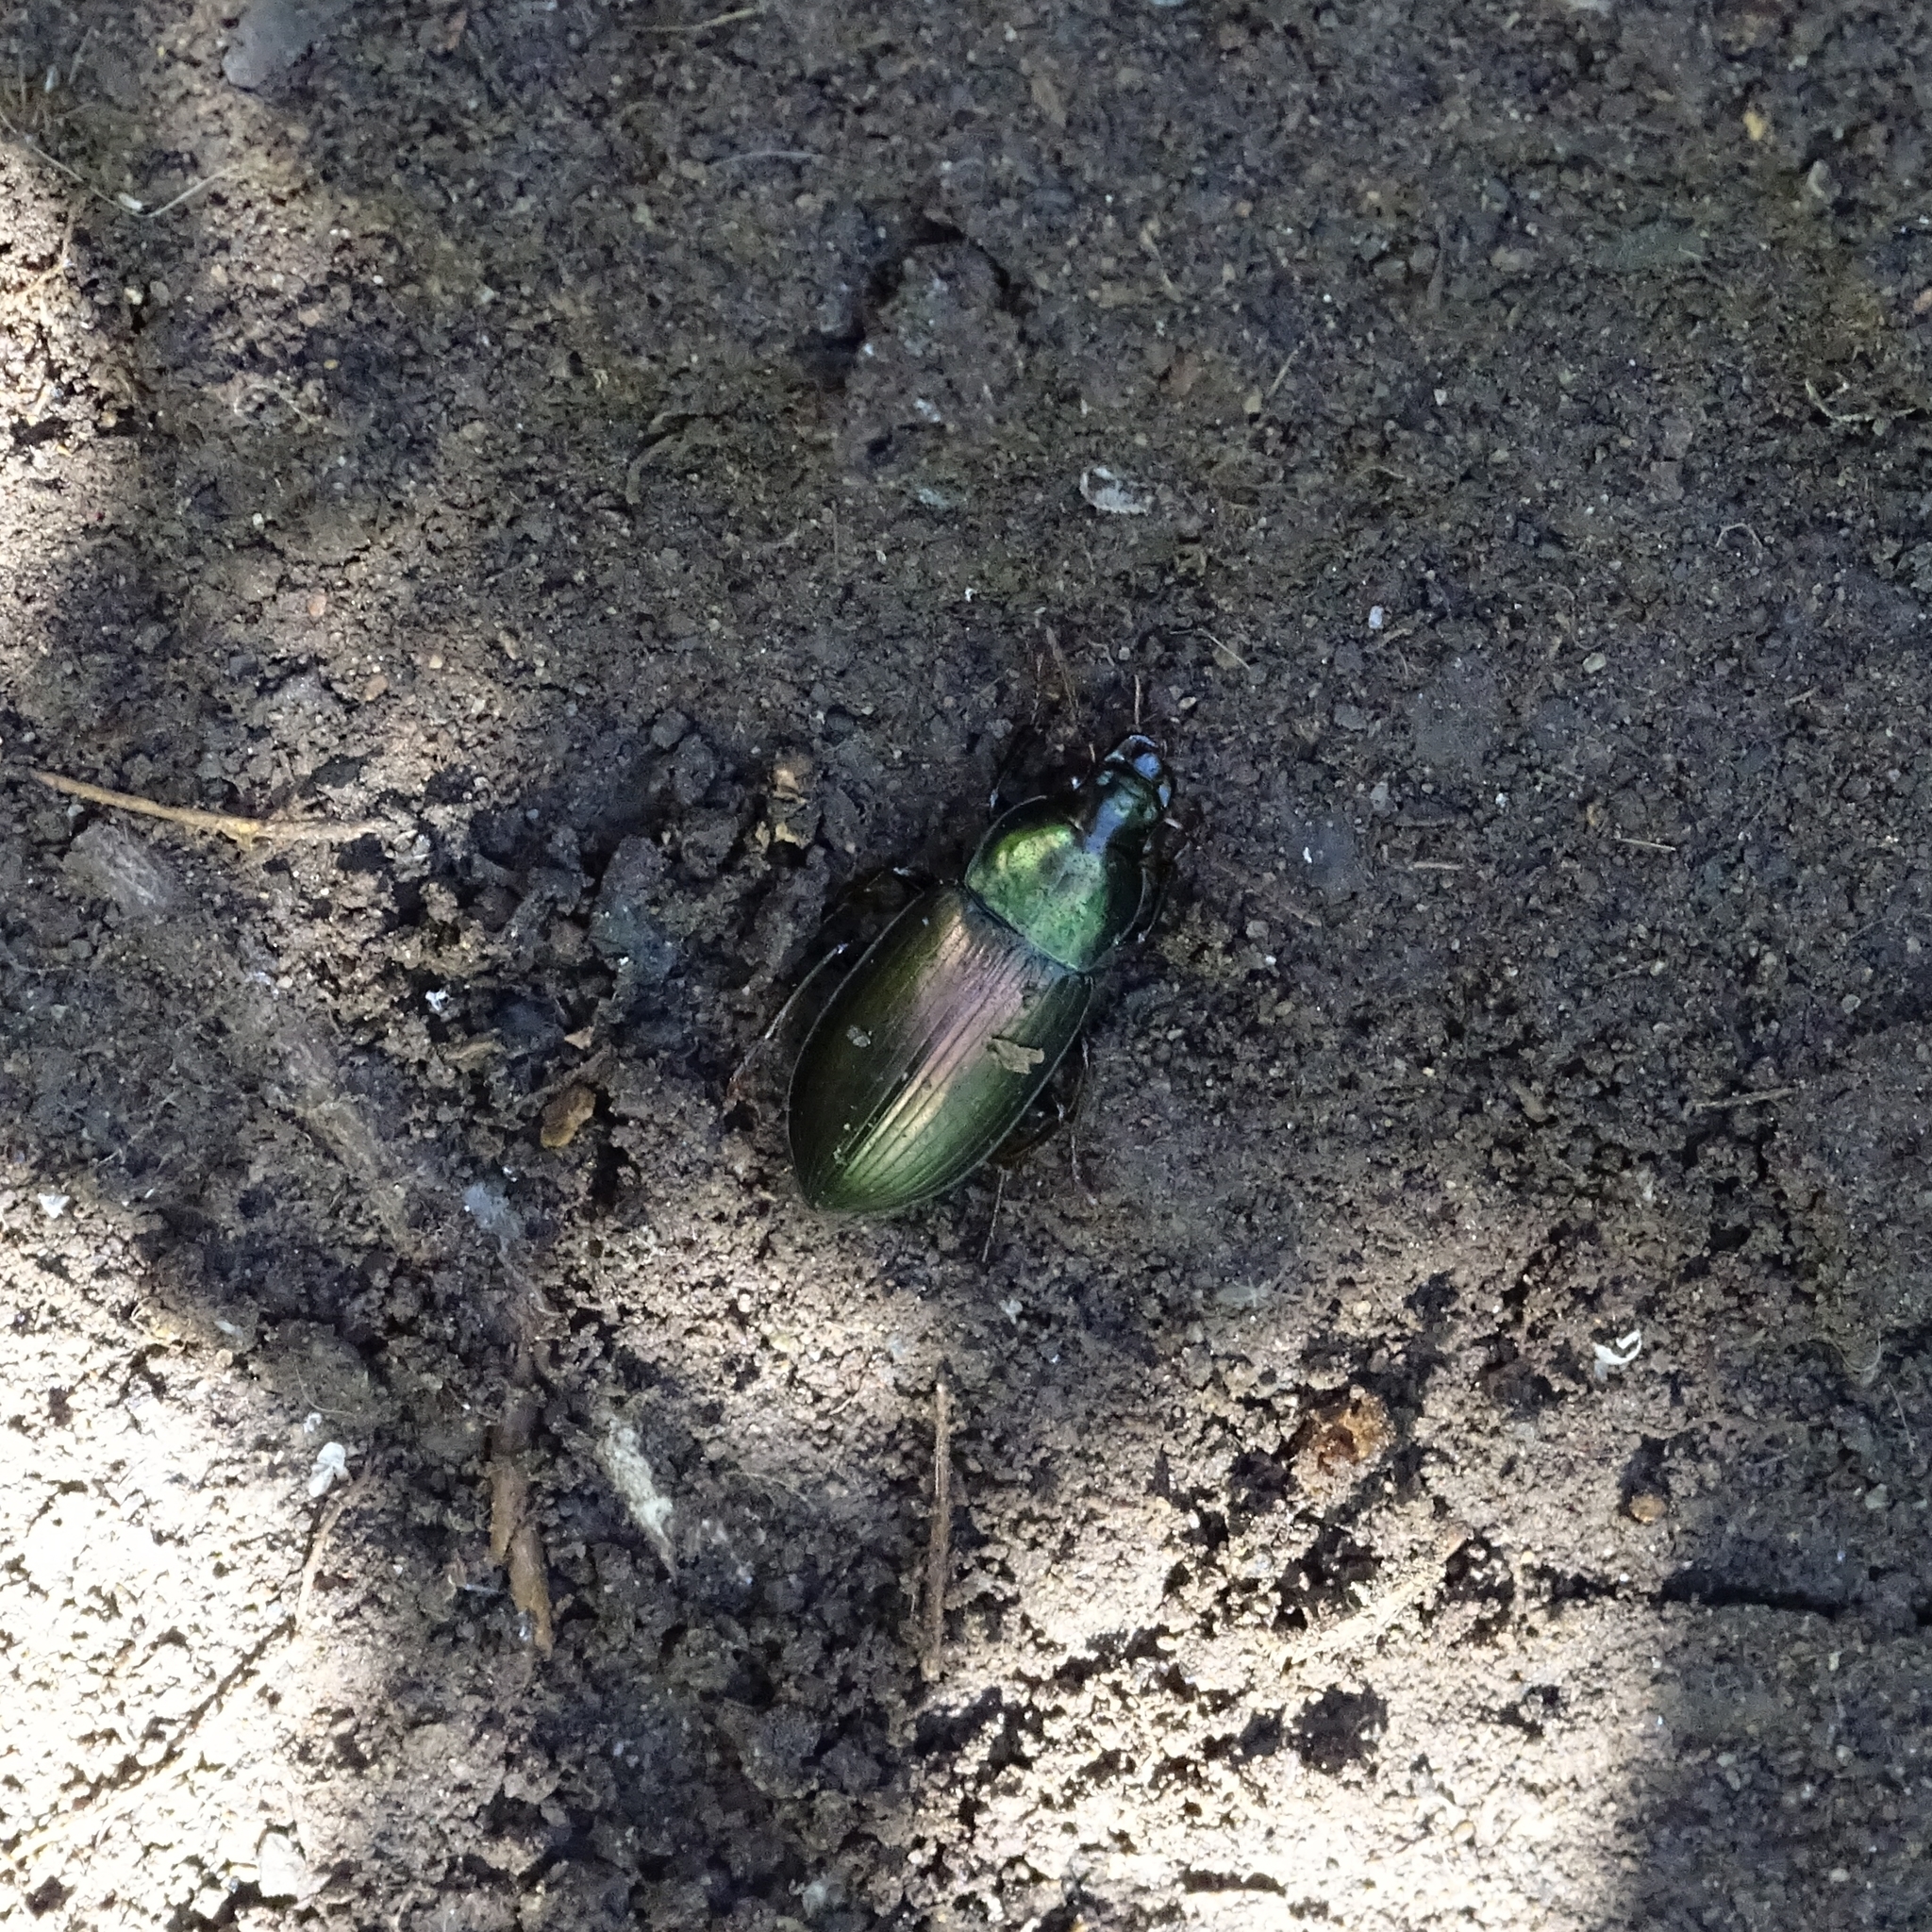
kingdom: Animalia
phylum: Arthropoda
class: Insecta
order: Coleoptera
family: Carabidae
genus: Notiobia
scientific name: Notiobia cupripennis
